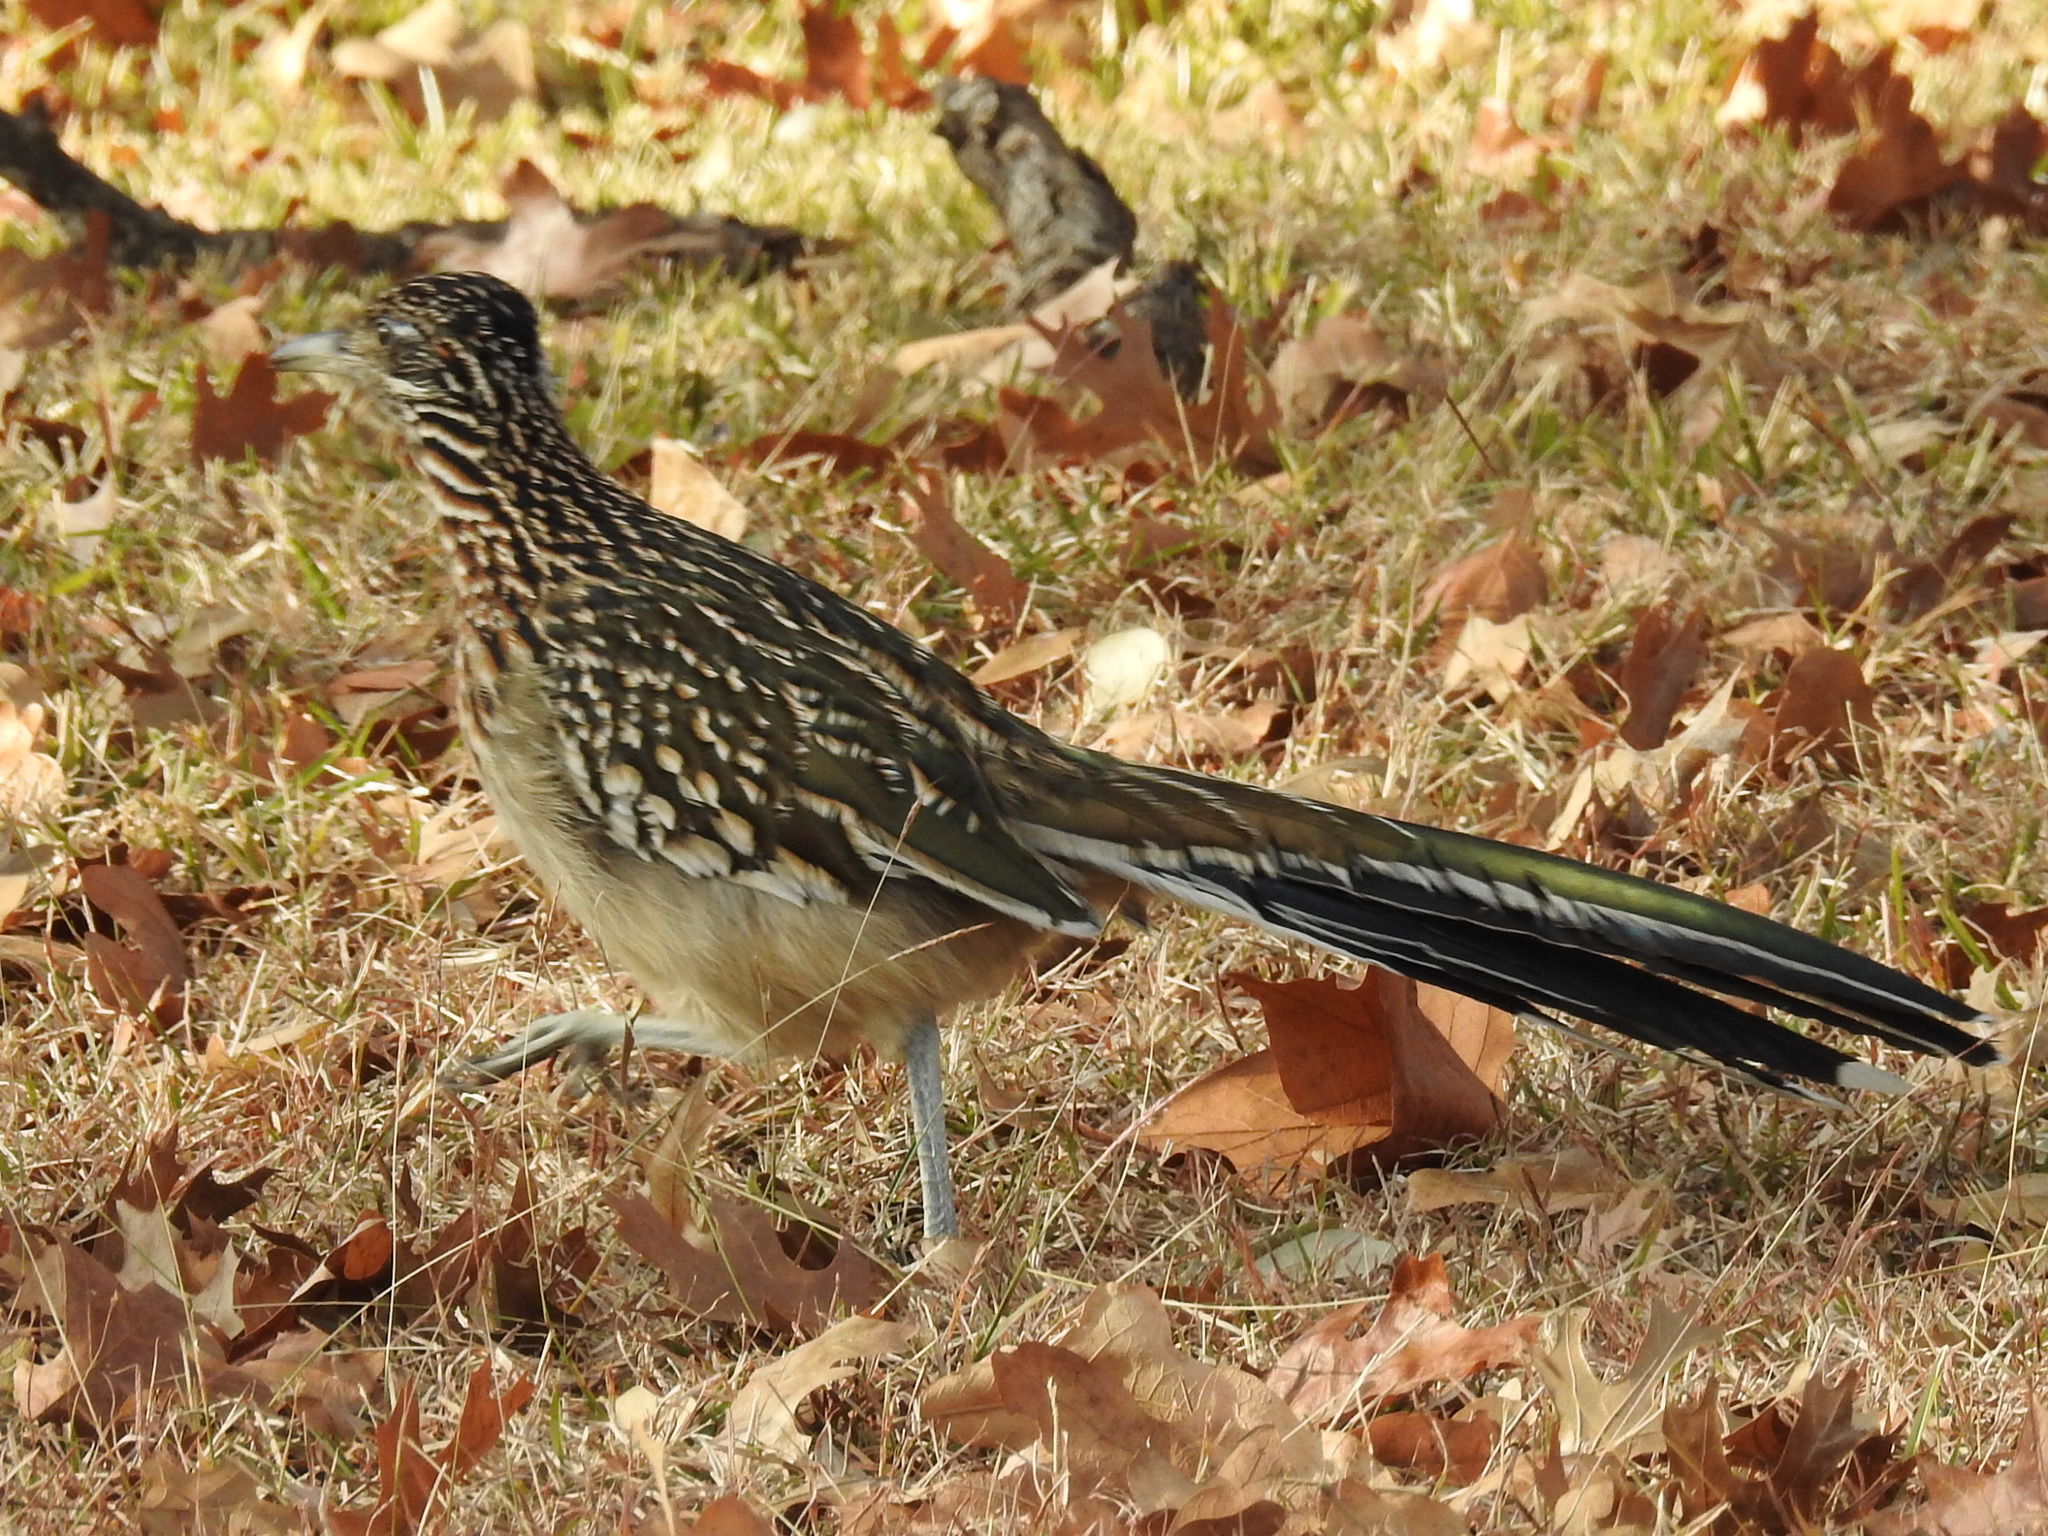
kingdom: Animalia
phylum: Chordata
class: Aves
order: Cuculiformes
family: Cuculidae
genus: Geococcyx
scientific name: Geococcyx californianus
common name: Greater roadrunner
